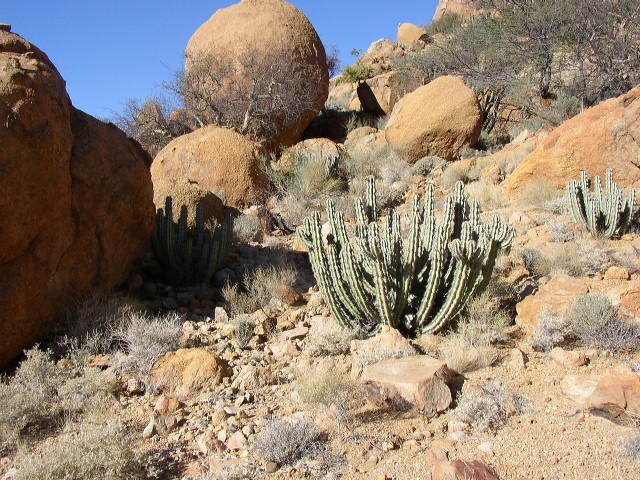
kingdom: Plantae
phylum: Tracheophyta
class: Magnoliopsida
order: Malpighiales
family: Euphorbiaceae
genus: Euphorbia
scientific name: Euphorbia virosa
